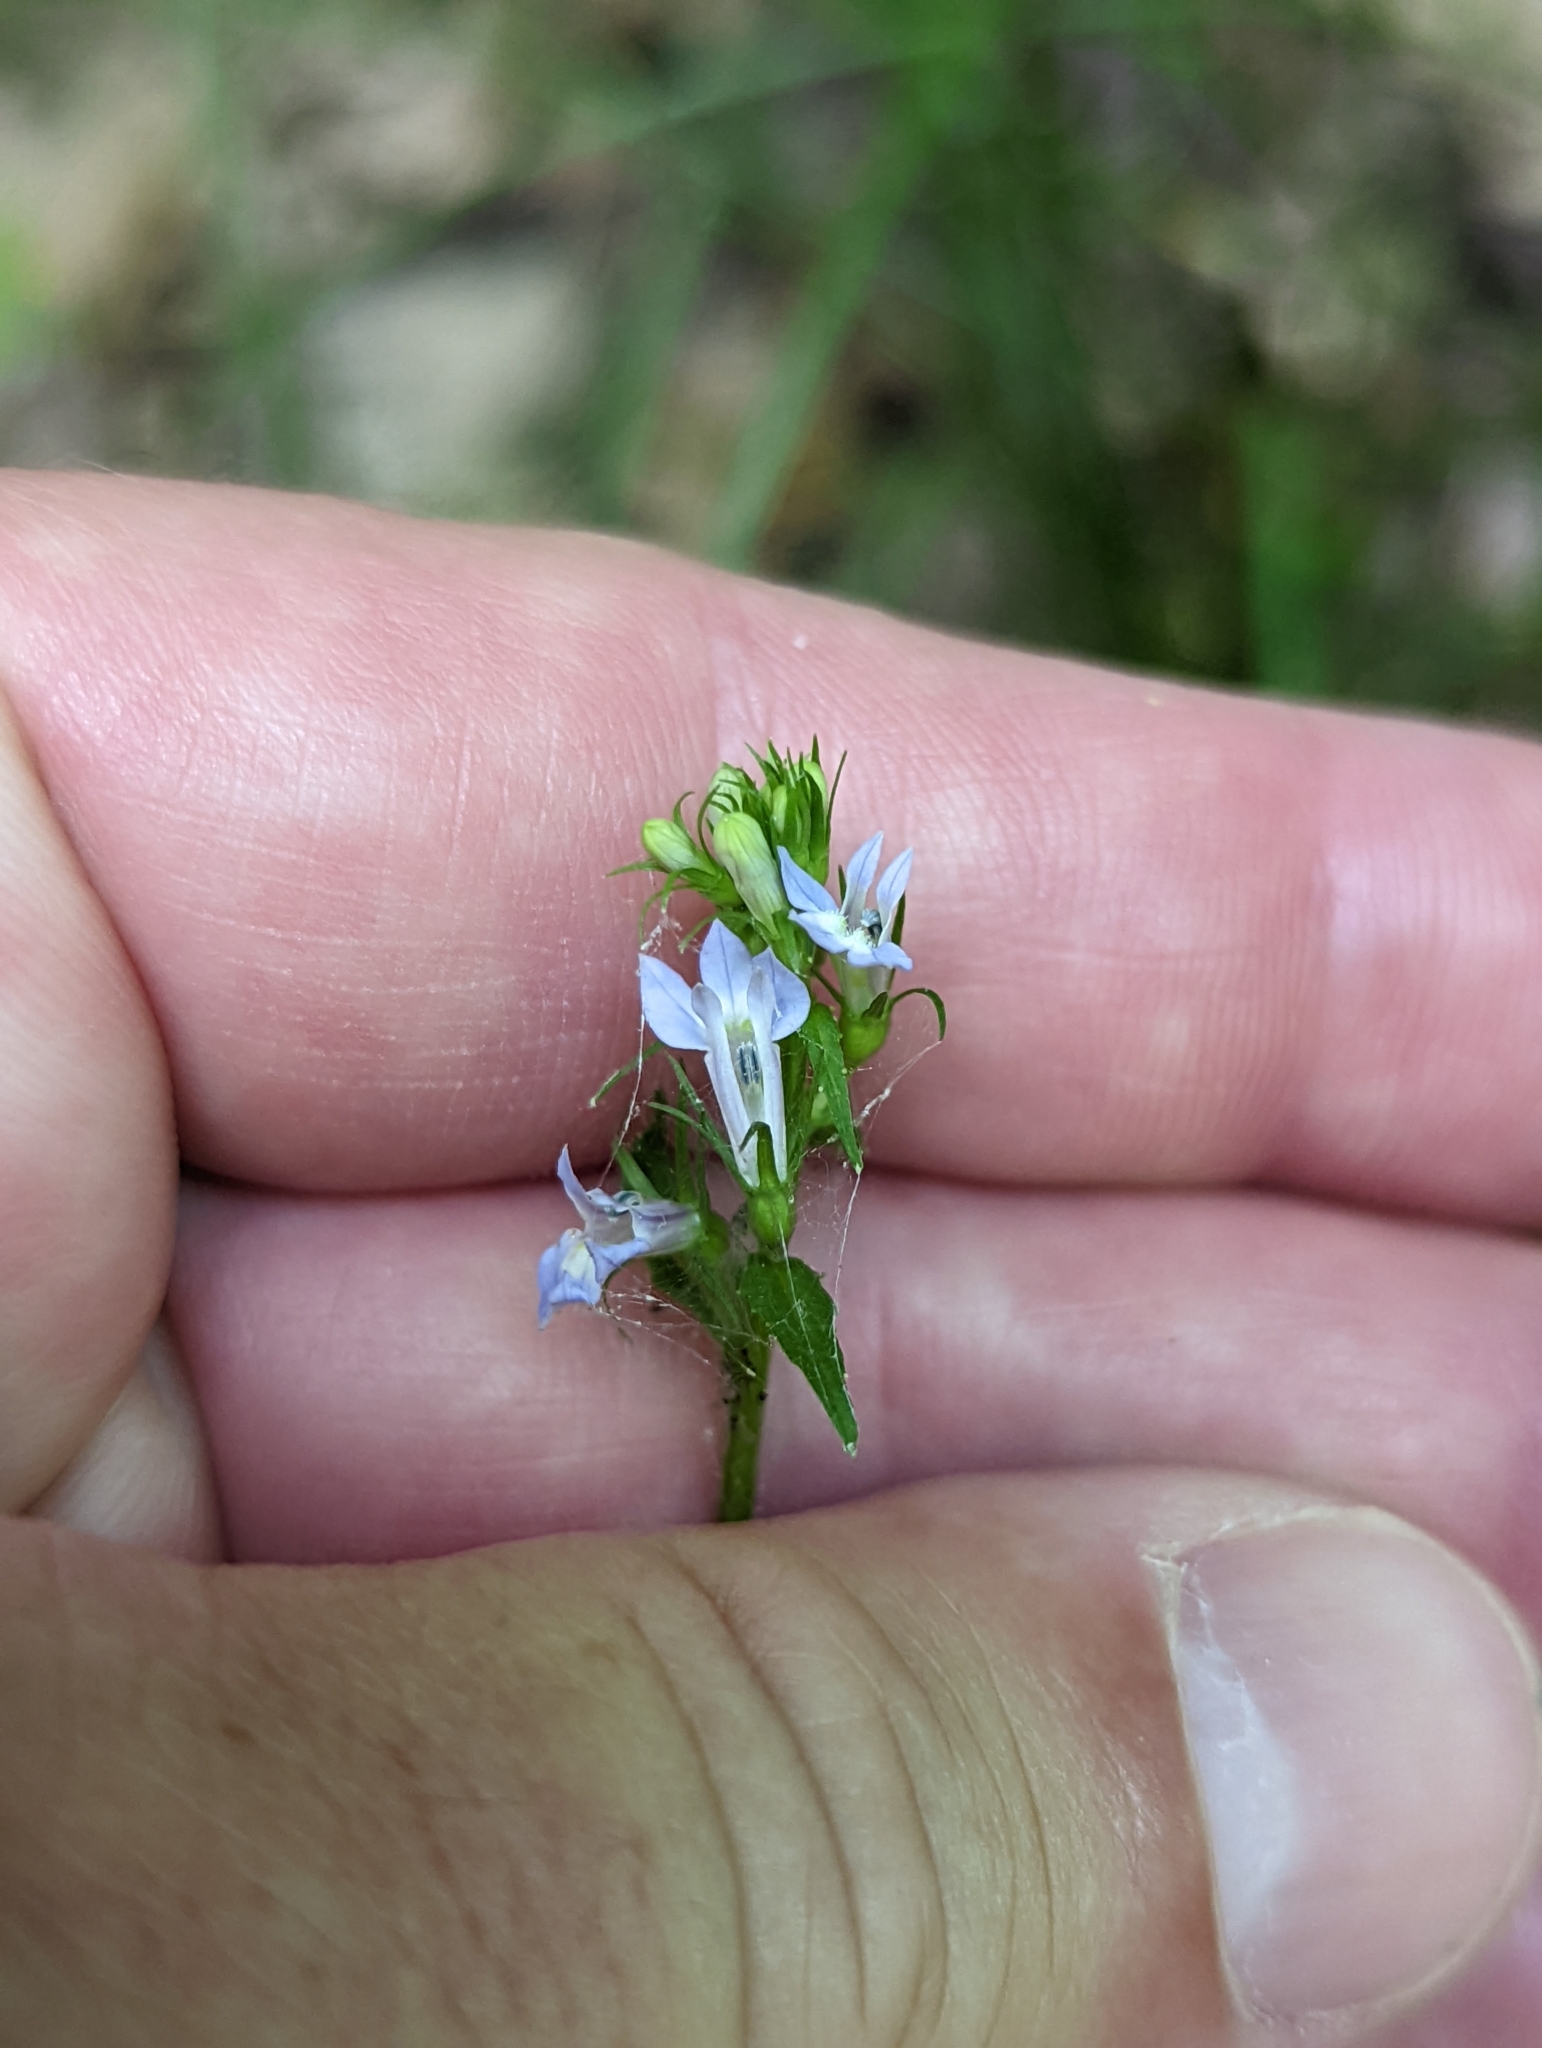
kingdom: Plantae
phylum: Tracheophyta
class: Magnoliopsida
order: Asterales
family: Campanulaceae
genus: Lobelia
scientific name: Lobelia inflata
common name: Indian tobacco
